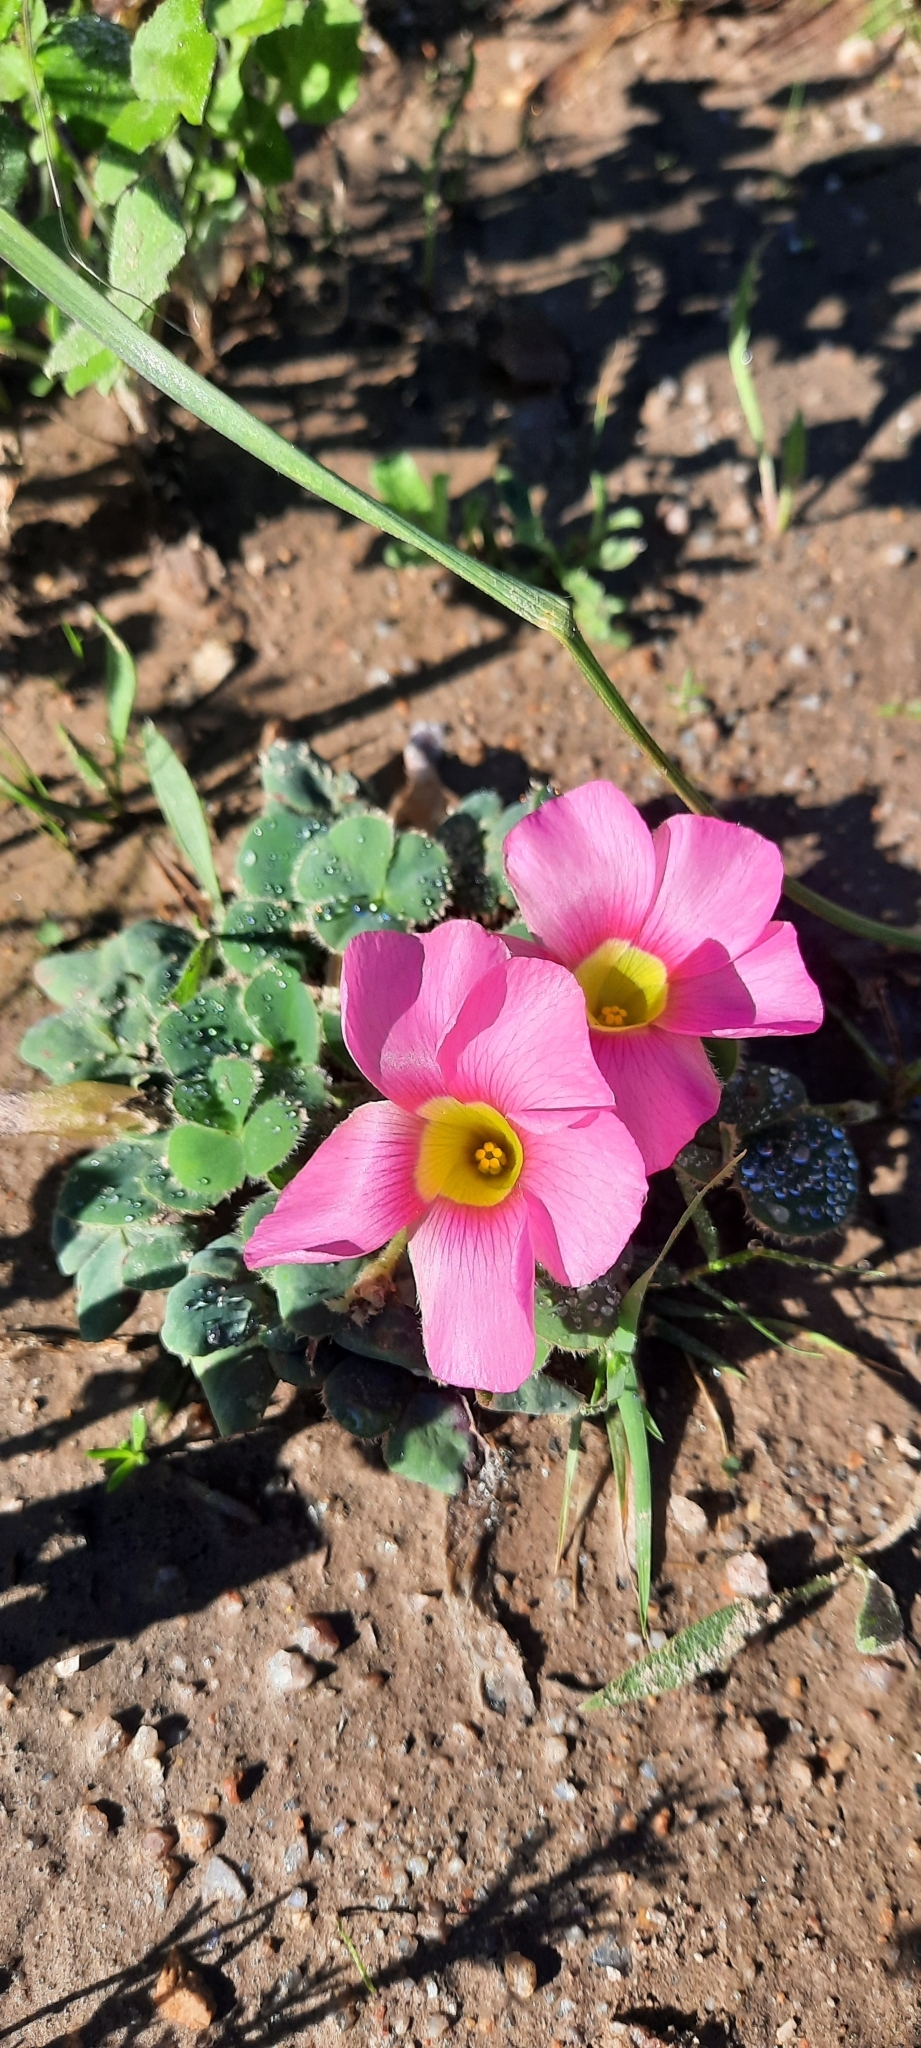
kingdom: Plantae
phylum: Tracheophyta
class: Magnoliopsida
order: Oxalidales
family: Oxalidaceae
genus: Oxalis
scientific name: Oxalis purpurea
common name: Purple woodsorrel
